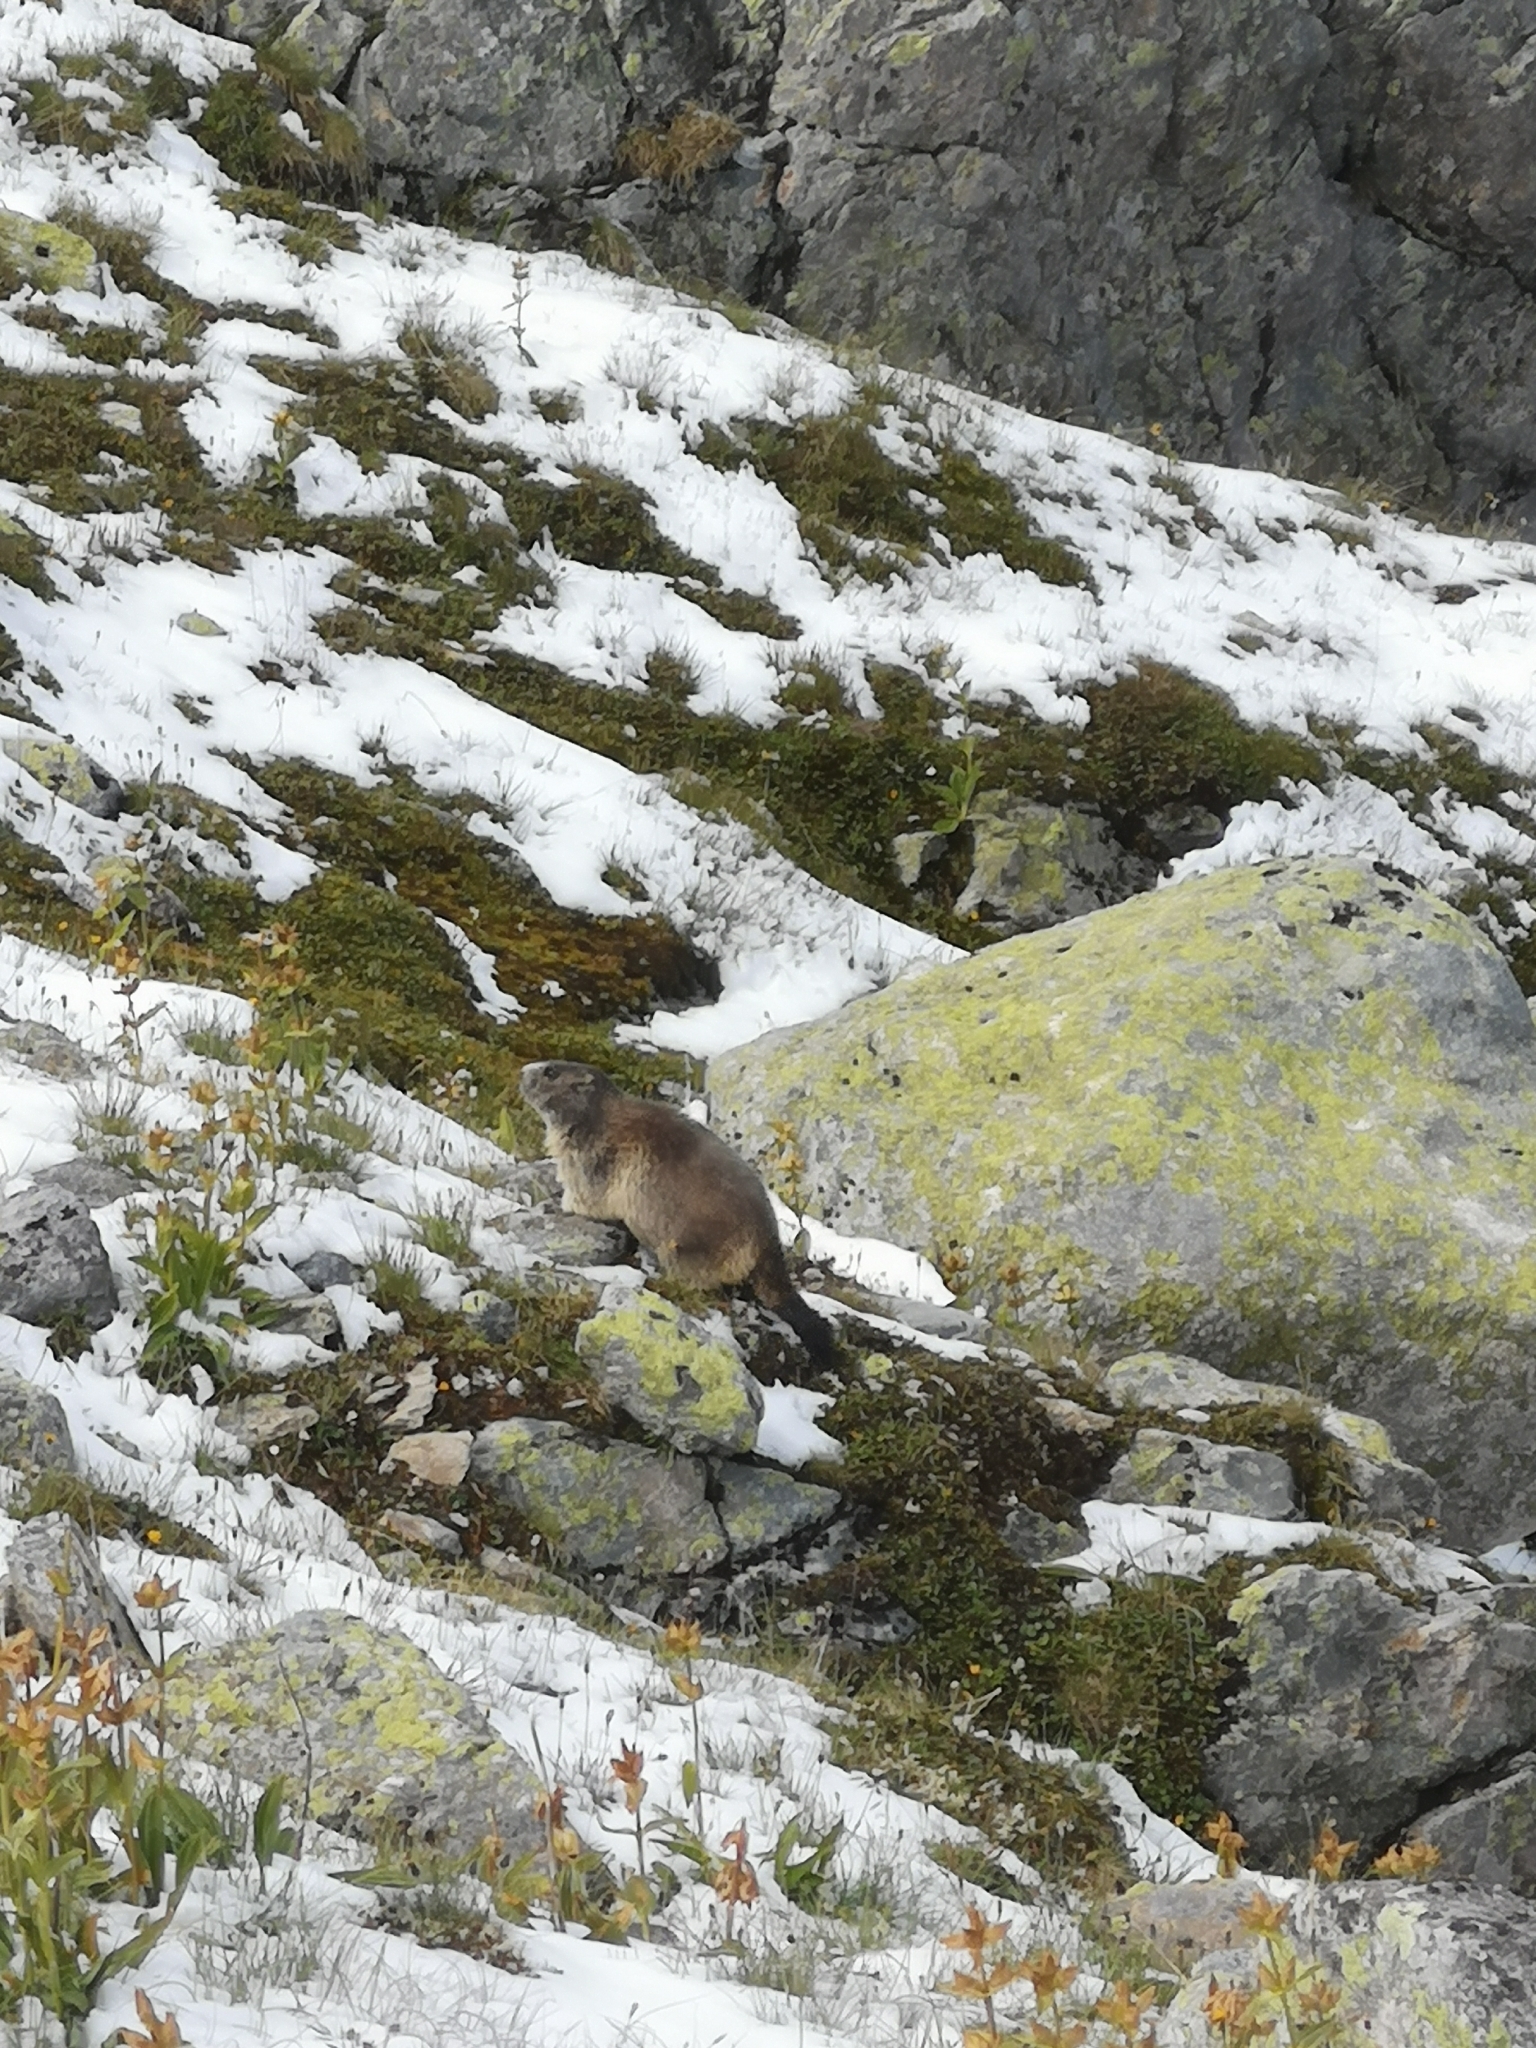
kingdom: Animalia
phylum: Chordata
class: Mammalia
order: Rodentia
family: Sciuridae
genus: Marmota
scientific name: Marmota marmota
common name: Alpine marmot
